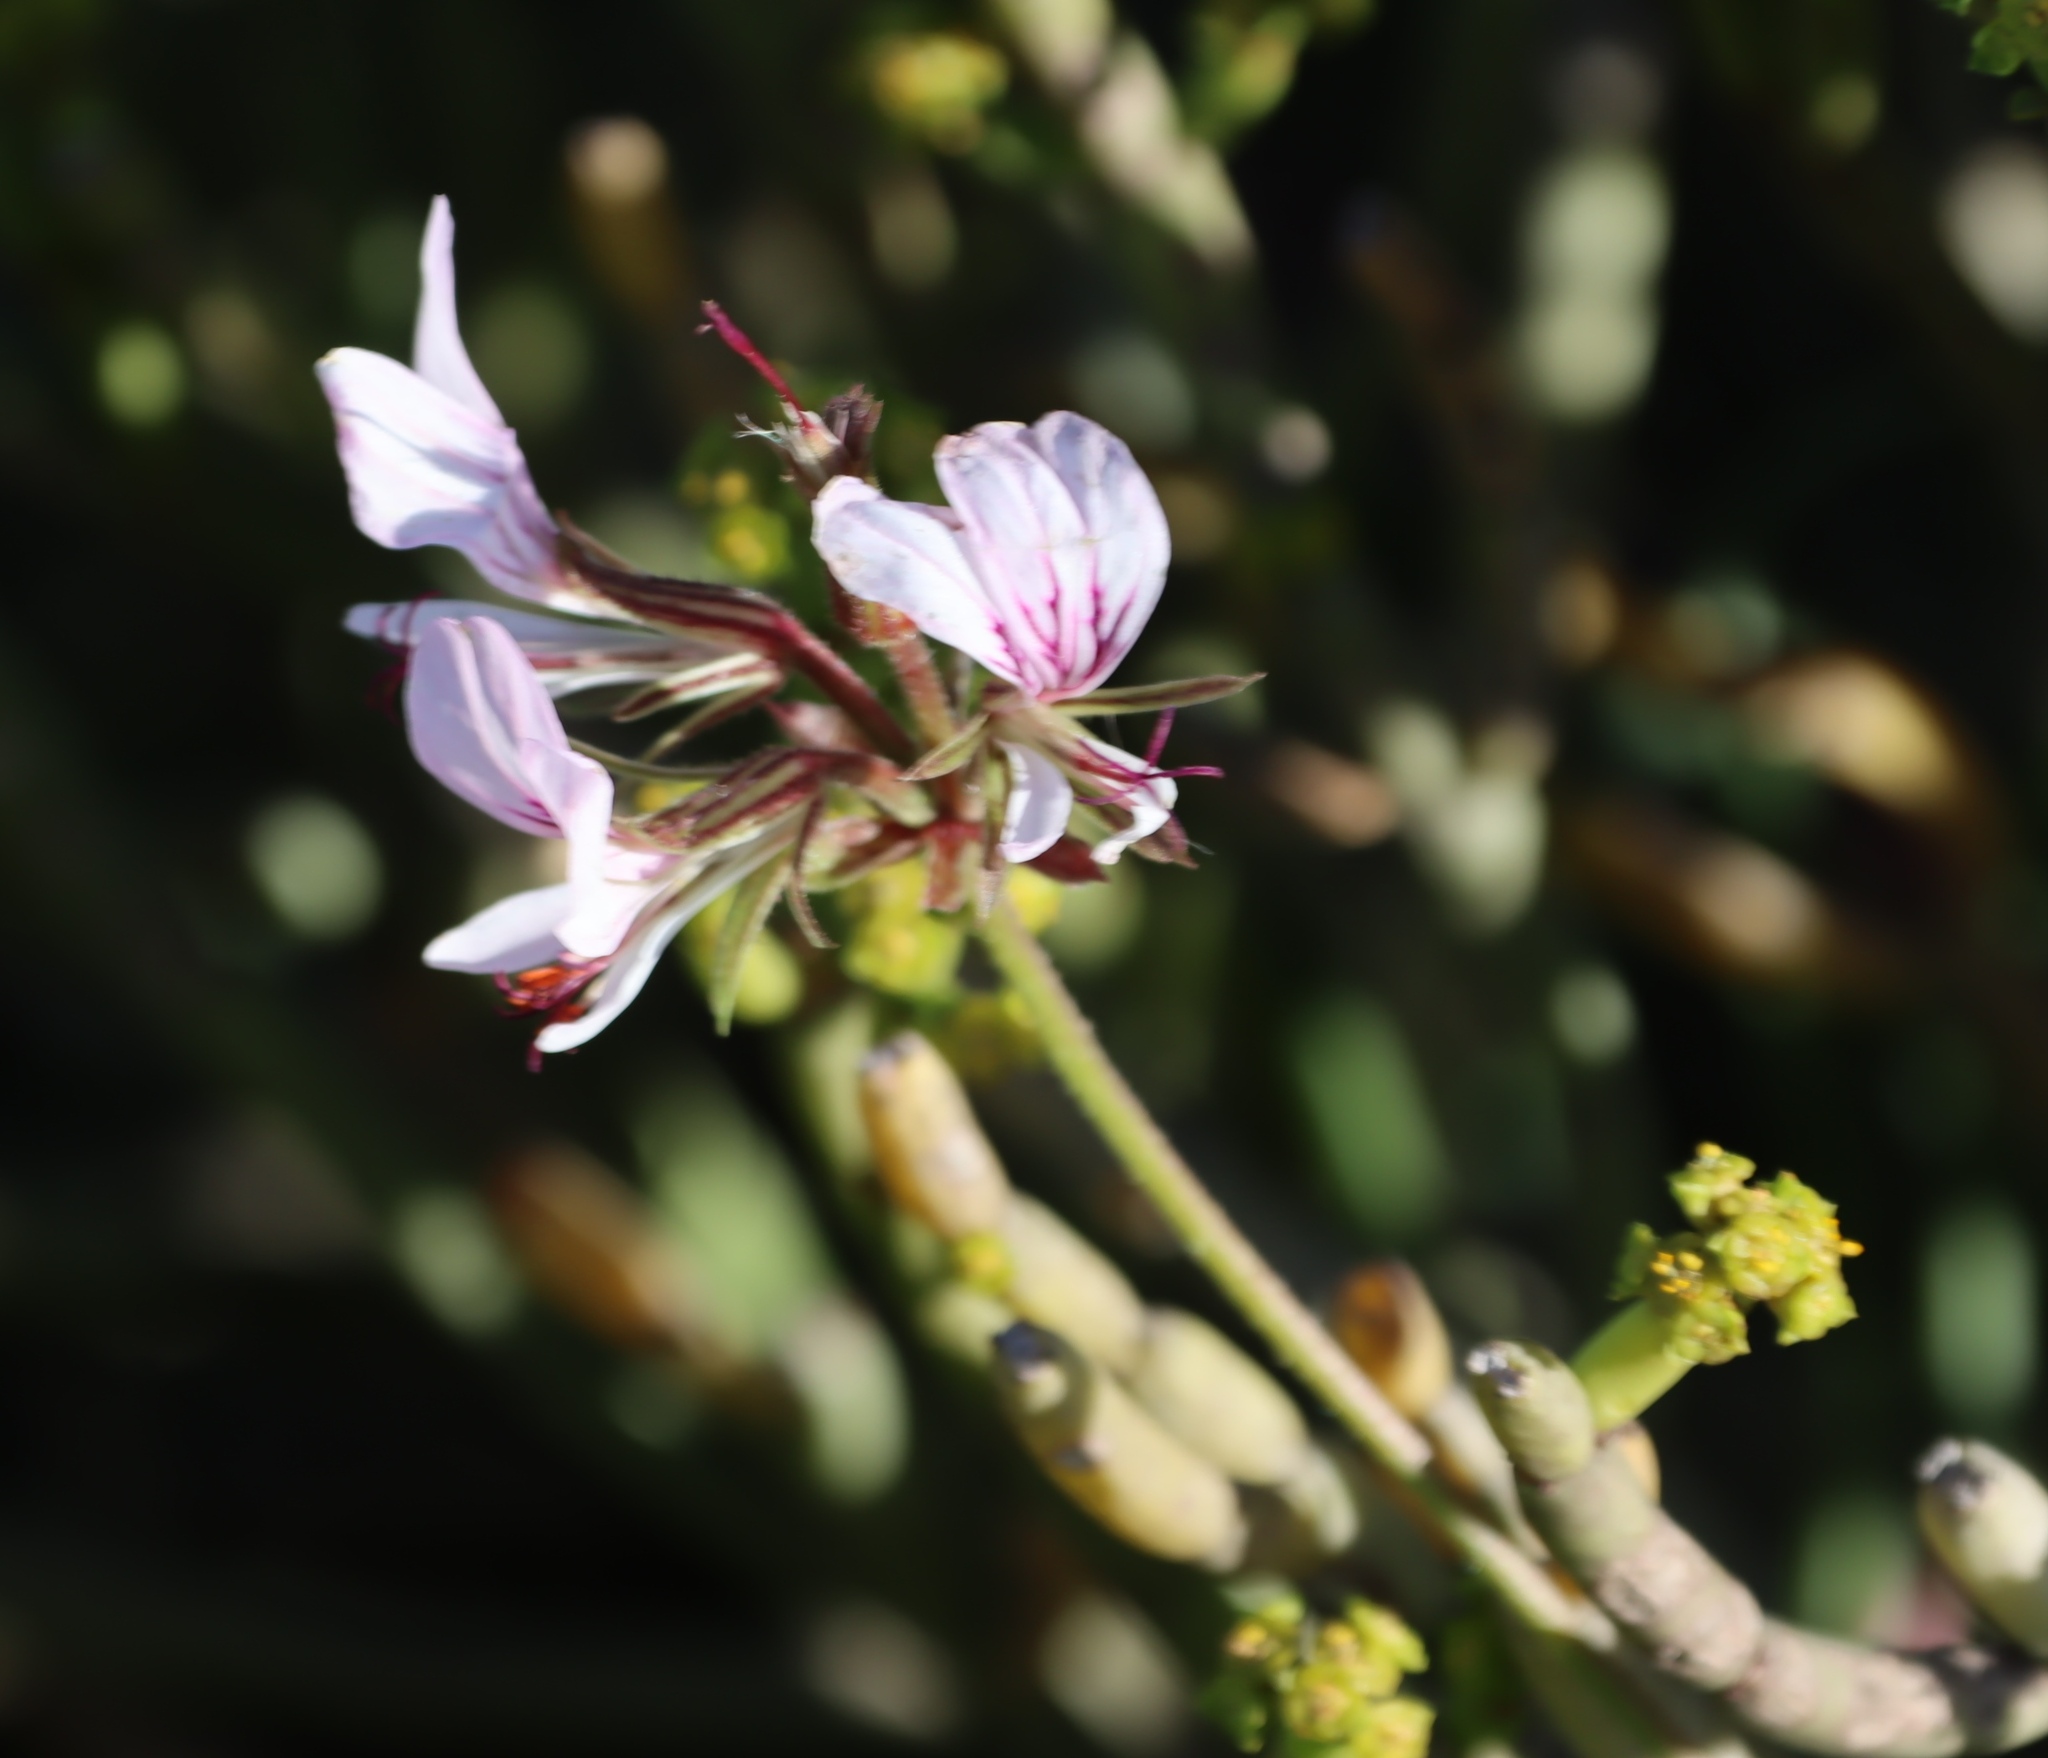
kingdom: Plantae
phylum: Tracheophyta
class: Magnoliopsida
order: Geraniales
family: Geraniaceae
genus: Pelargonium
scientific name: Pelargonium myrrhifolium
